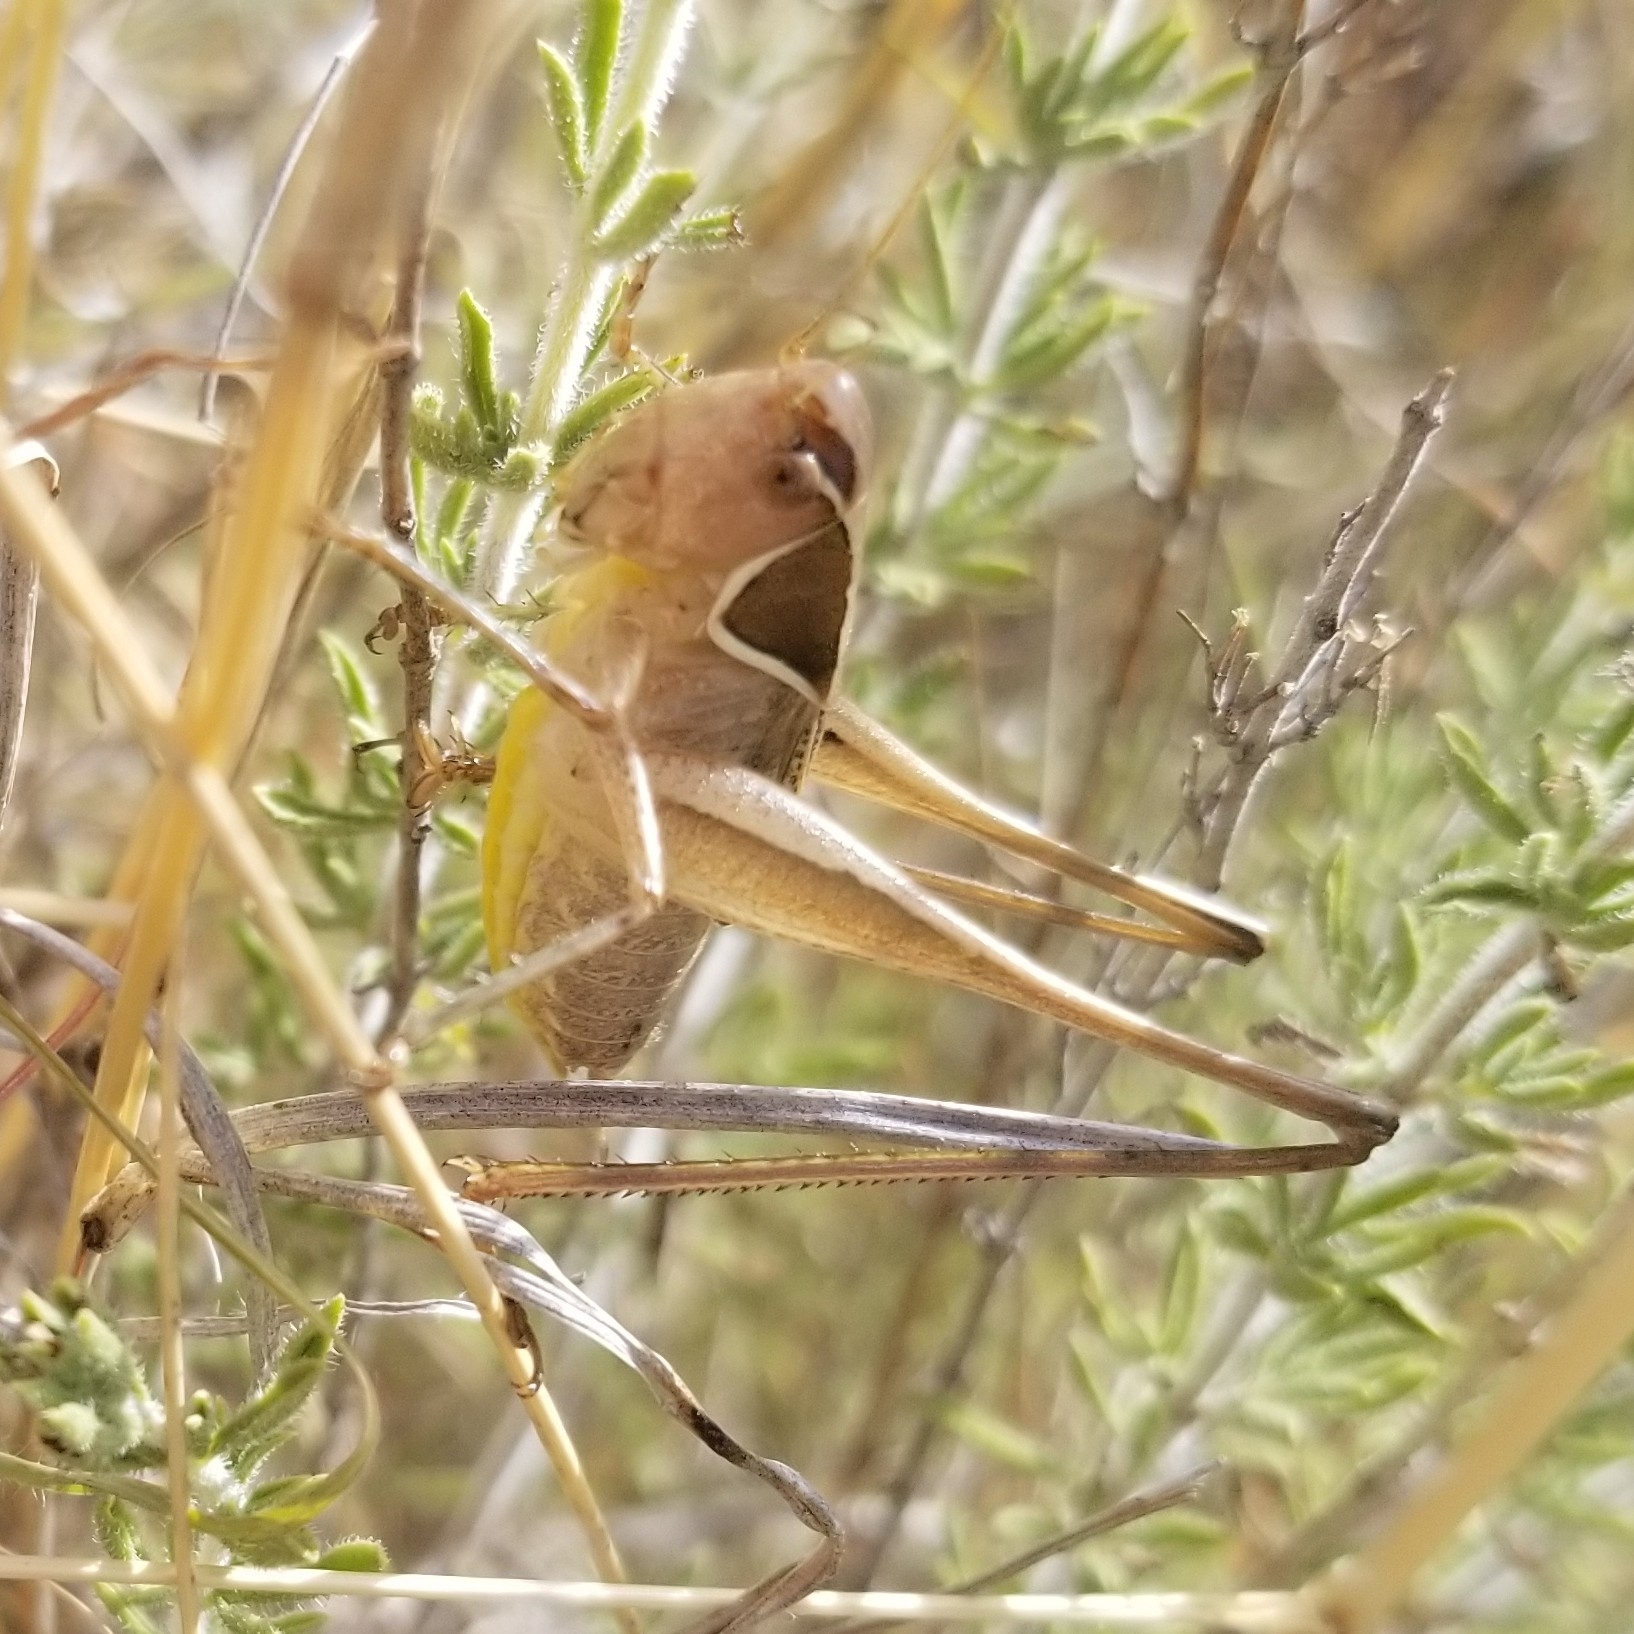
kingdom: Animalia
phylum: Arthropoda
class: Insecta
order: Orthoptera
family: Tettigoniidae
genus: Sepiana
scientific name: Sepiana sepium
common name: Sepia bush-cricket
